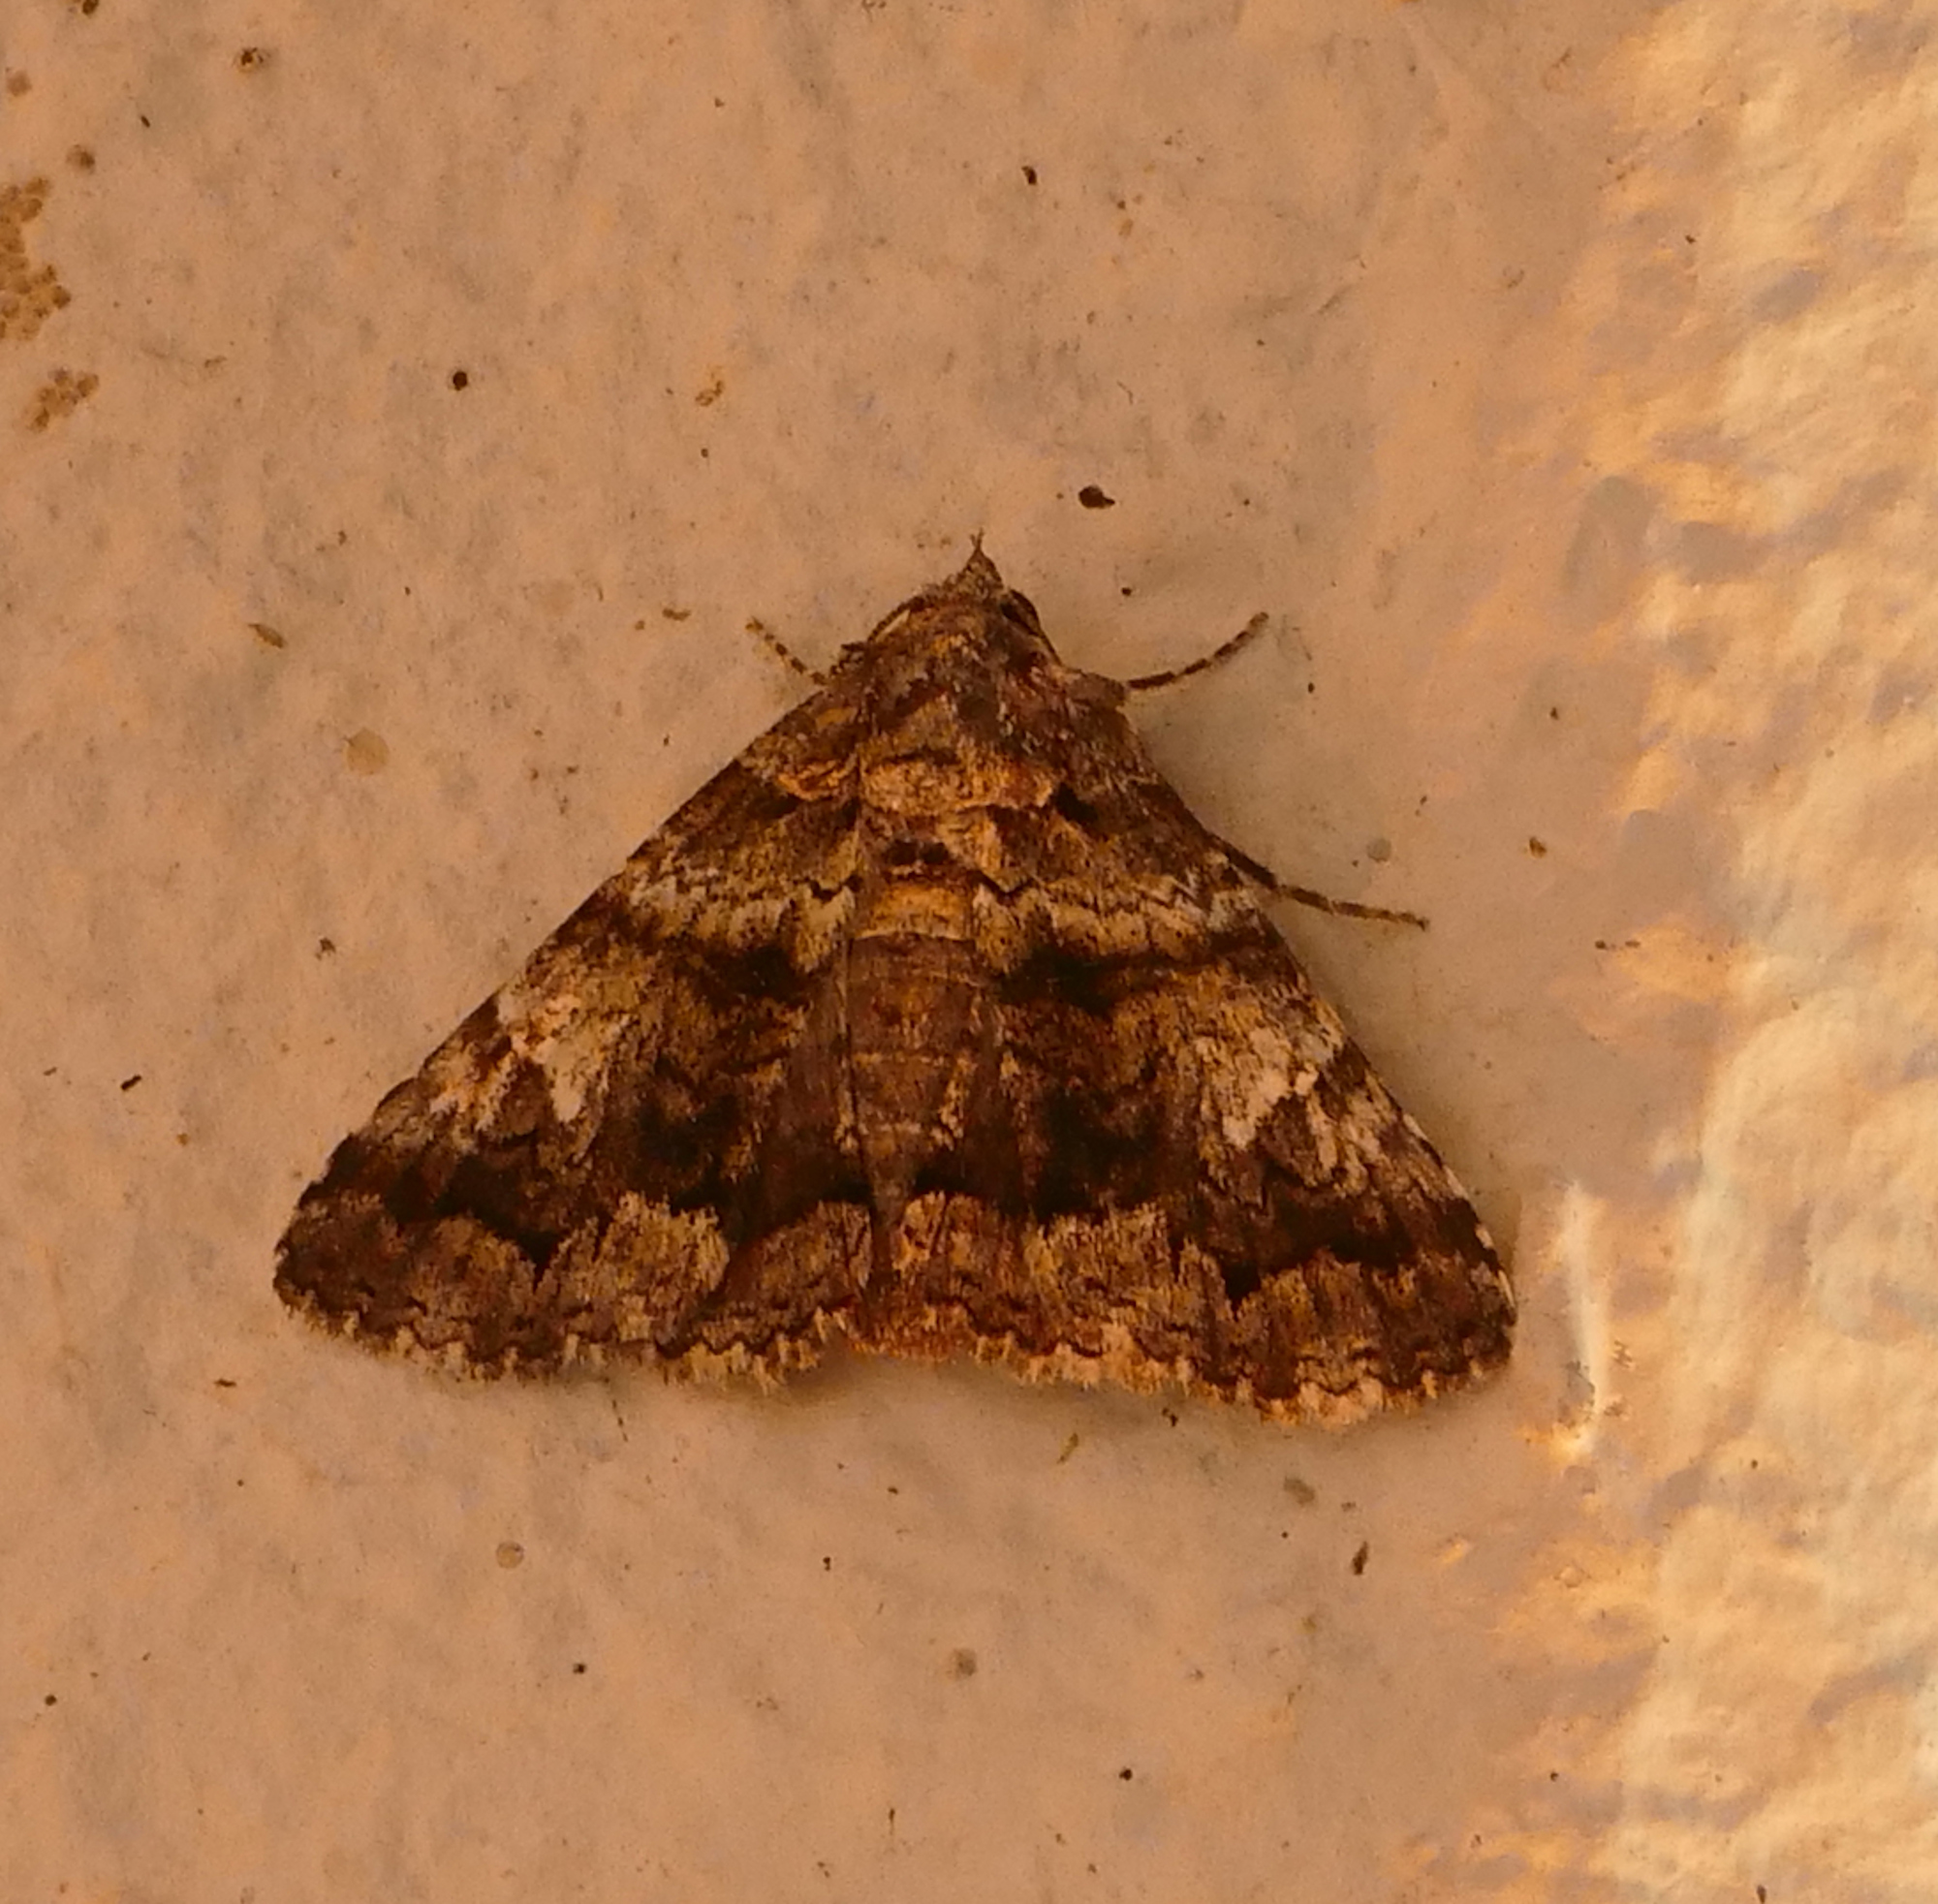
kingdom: Animalia
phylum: Arthropoda
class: Insecta
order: Lepidoptera
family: Erebidae
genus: Metria
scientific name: Metria amella
